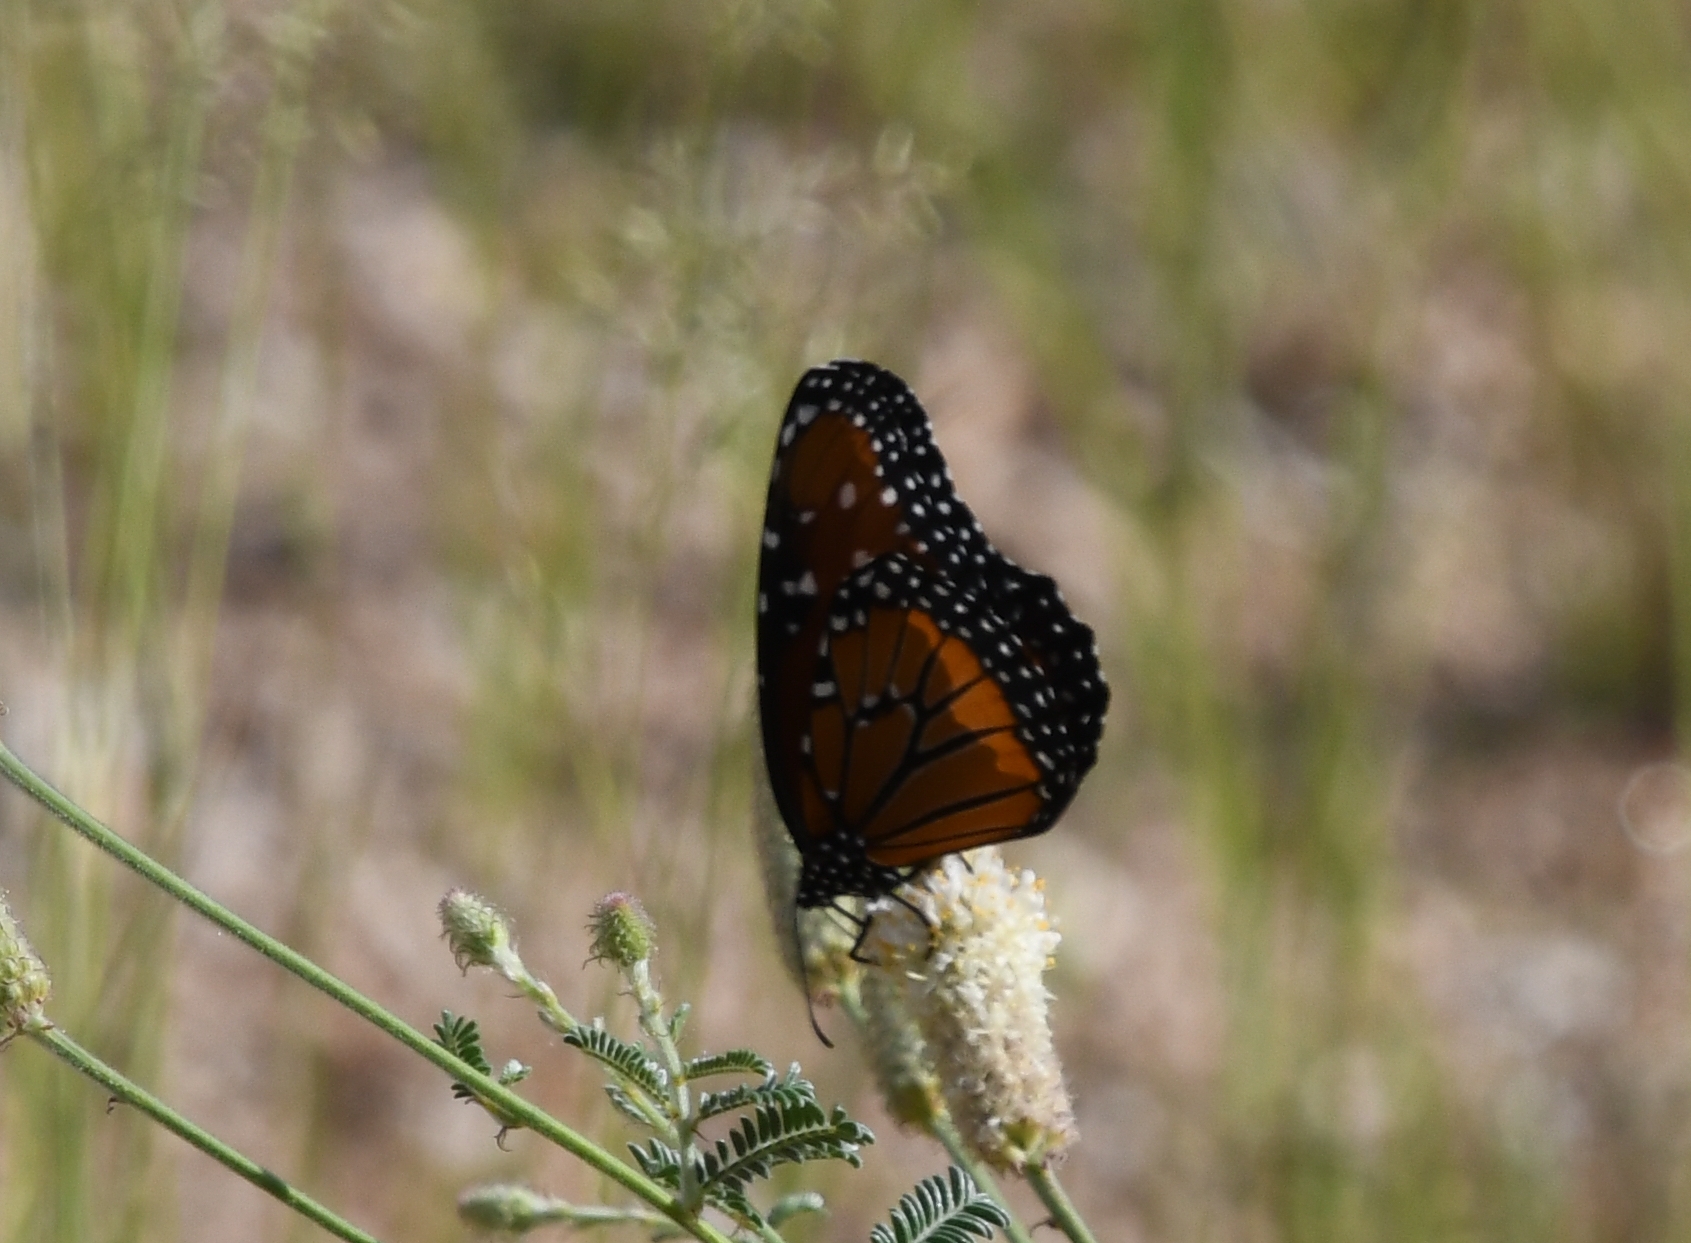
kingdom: Animalia
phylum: Arthropoda
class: Insecta
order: Lepidoptera
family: Nymphalidae
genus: Danaus
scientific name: Danaus gilippus
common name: Queen
